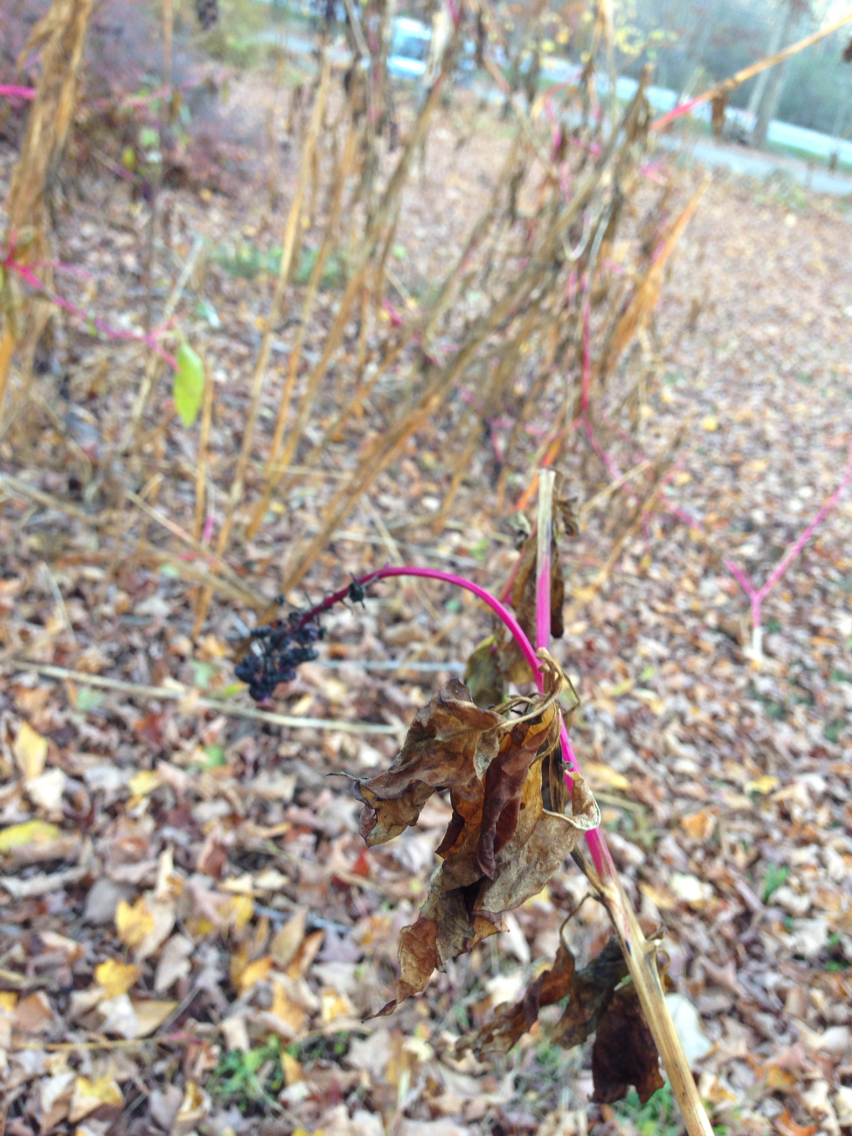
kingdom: Plantae
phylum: Tracheophyta
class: Magnoliopsida
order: Caryophyllales
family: Phytolaccaceae
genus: Phytolacca
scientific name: Phytolacca americana
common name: American pokeweed
